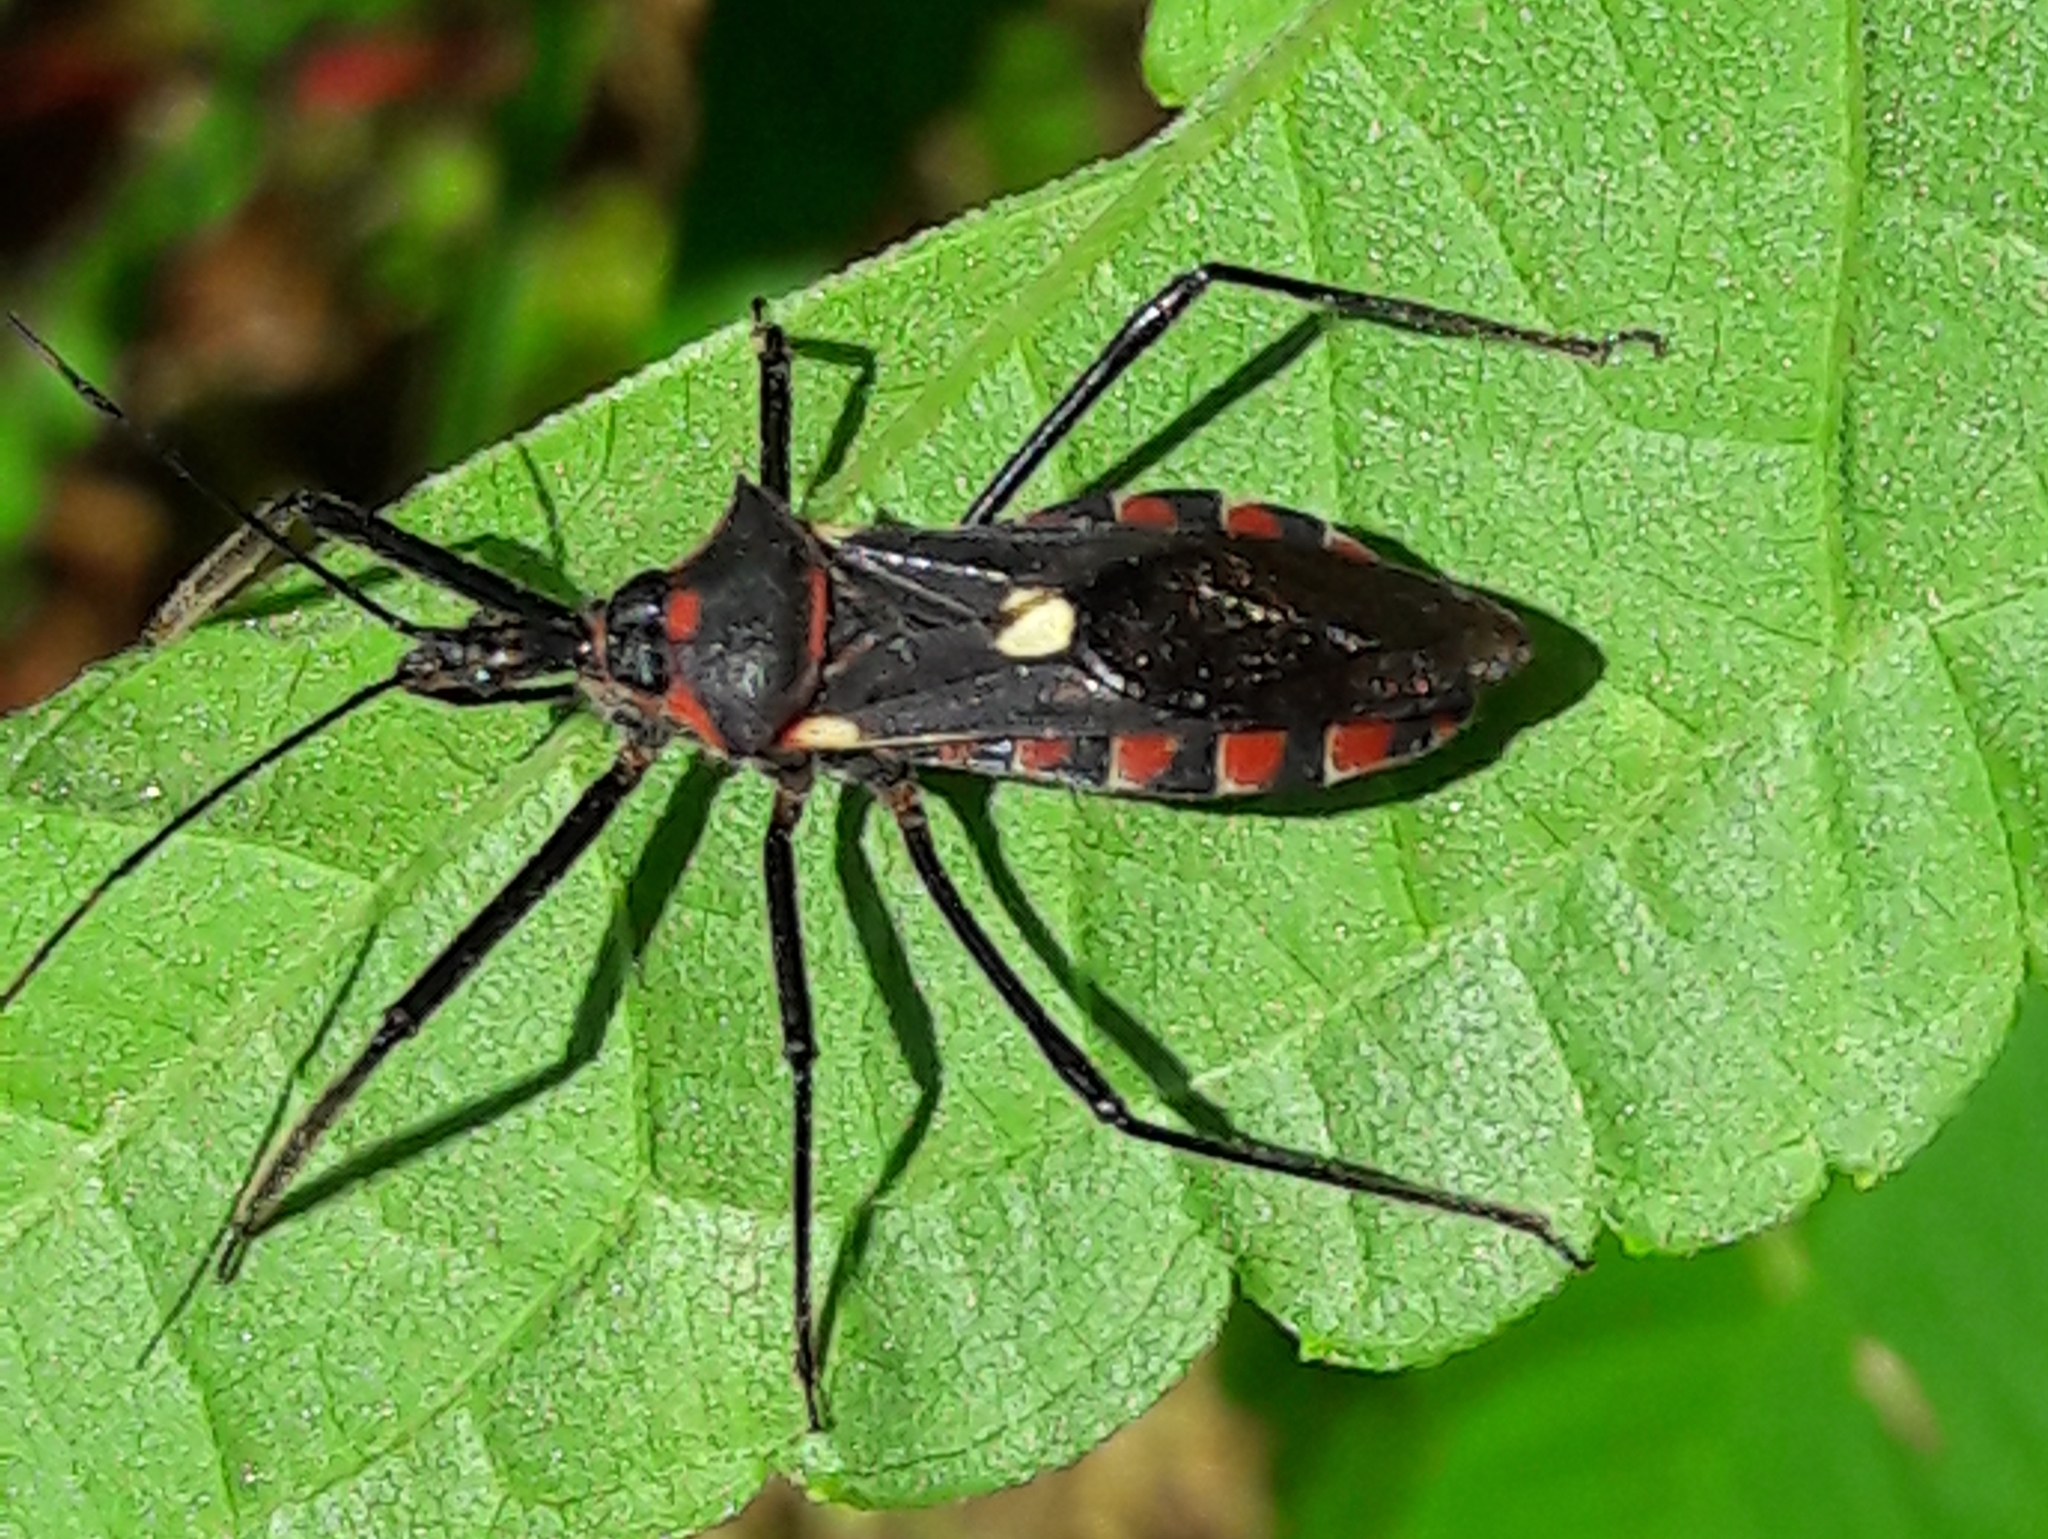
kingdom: Animalia
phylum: Arthropoda
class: Insecta
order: Hemiptera
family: Reduviidae
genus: Zelus
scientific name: Zelus armillatus
